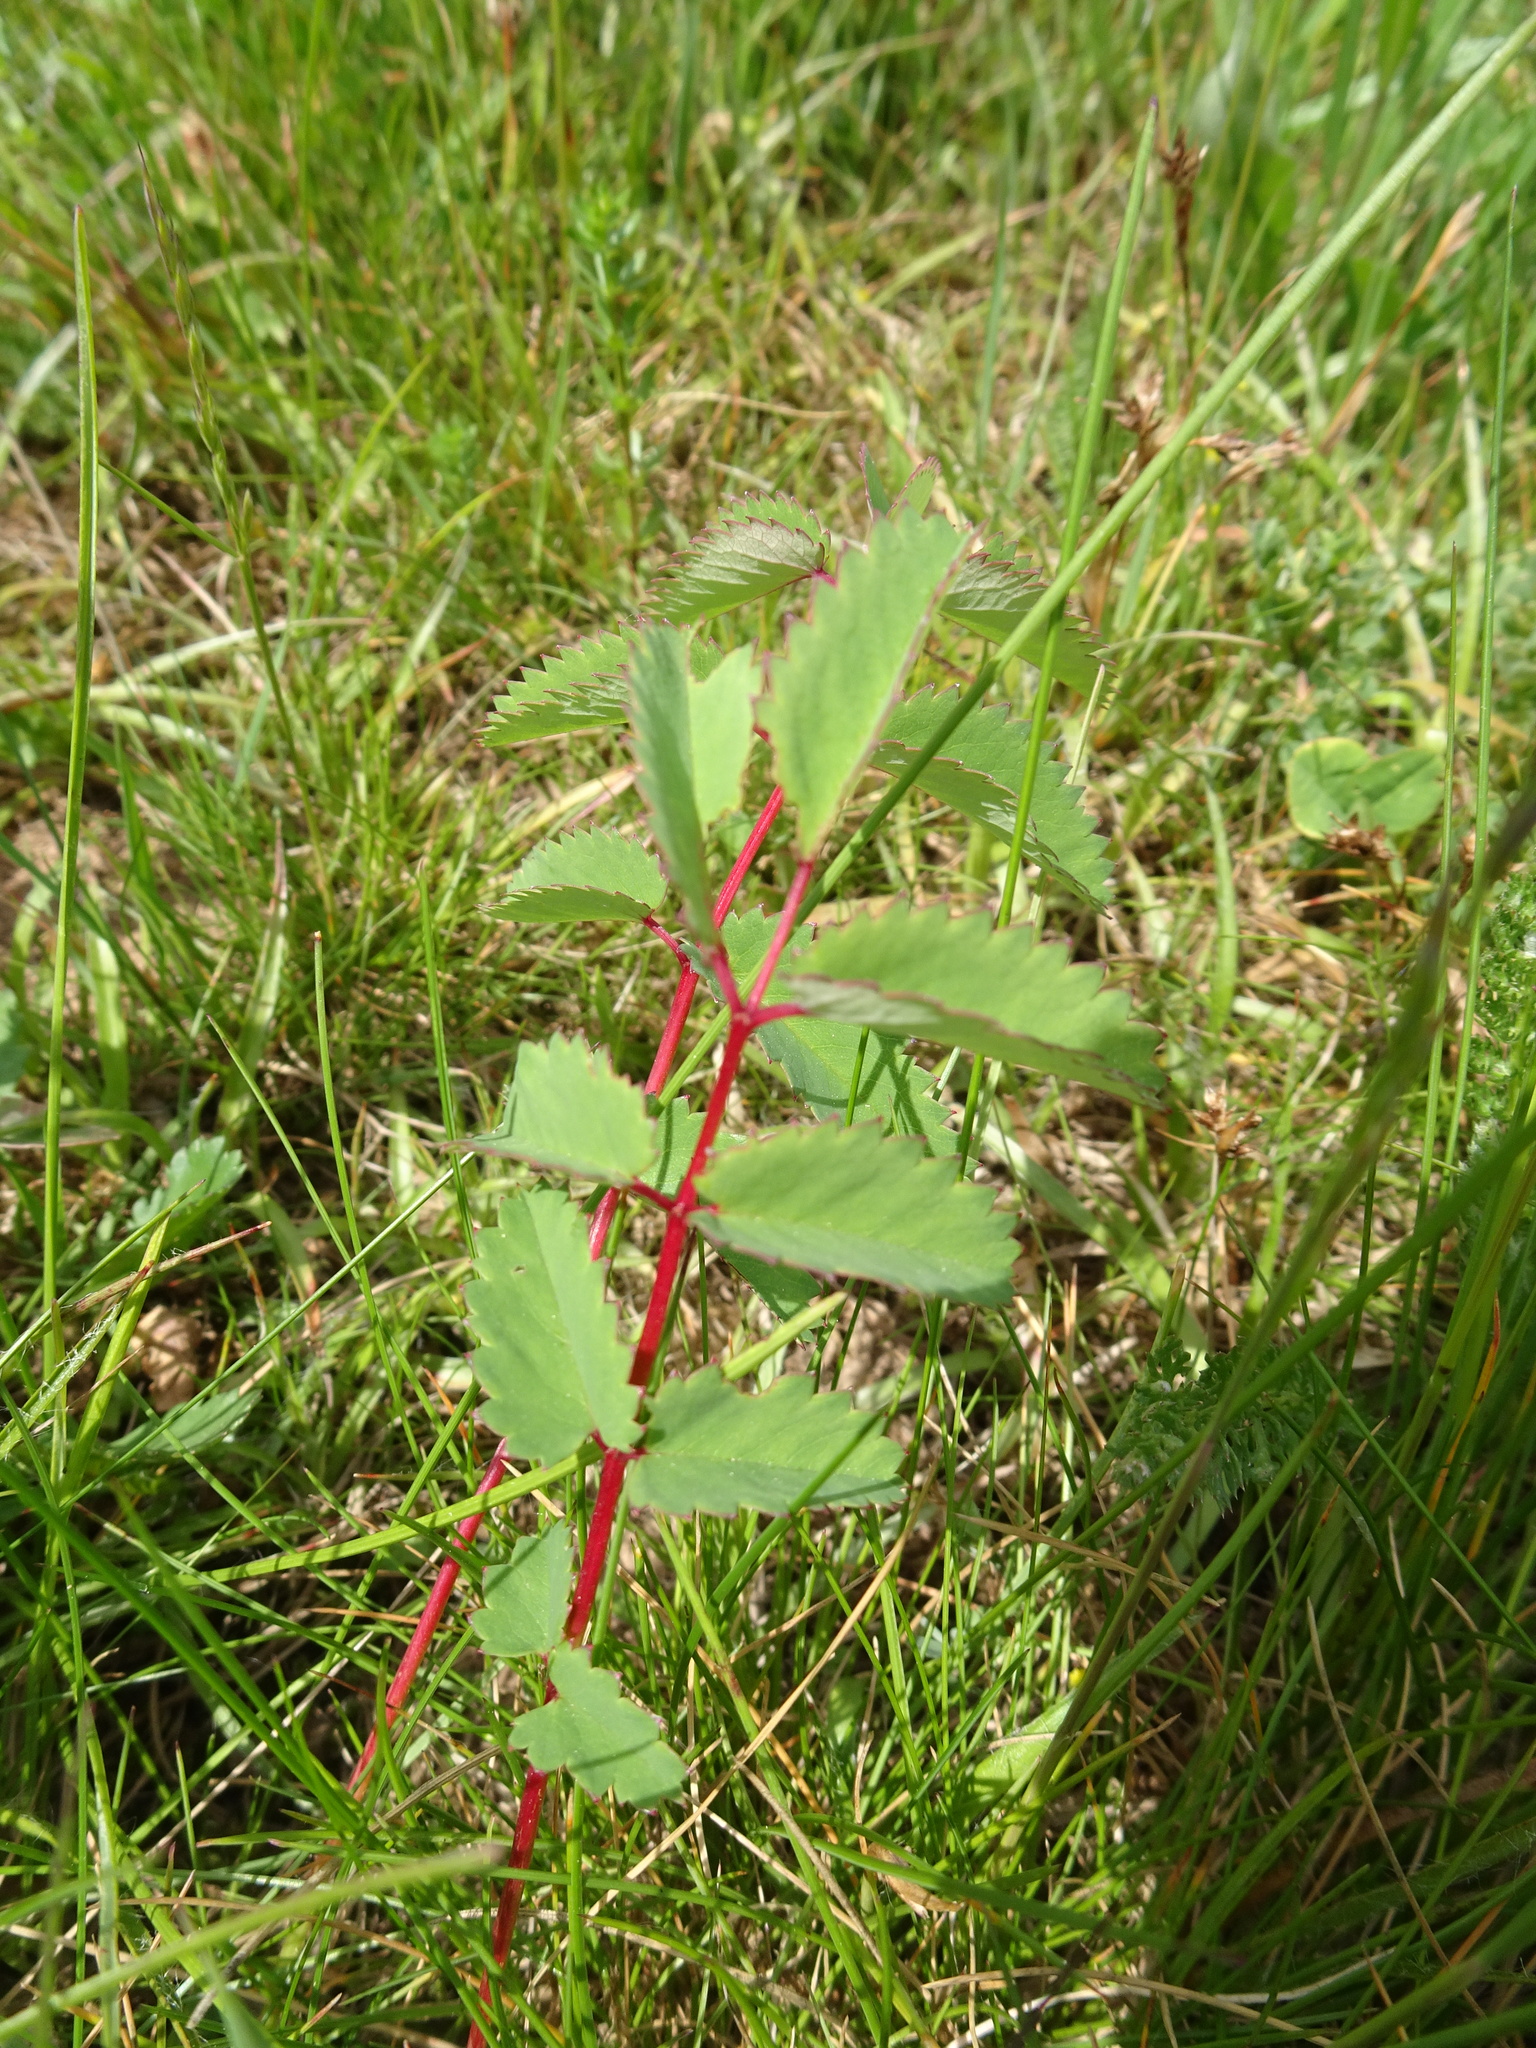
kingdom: Plantae
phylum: Tracheophyta
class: Magnoliopsida
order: Rosales
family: Rosaceae
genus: Sanguisorba
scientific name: Sanguisorba officinalis
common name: Great burnet
